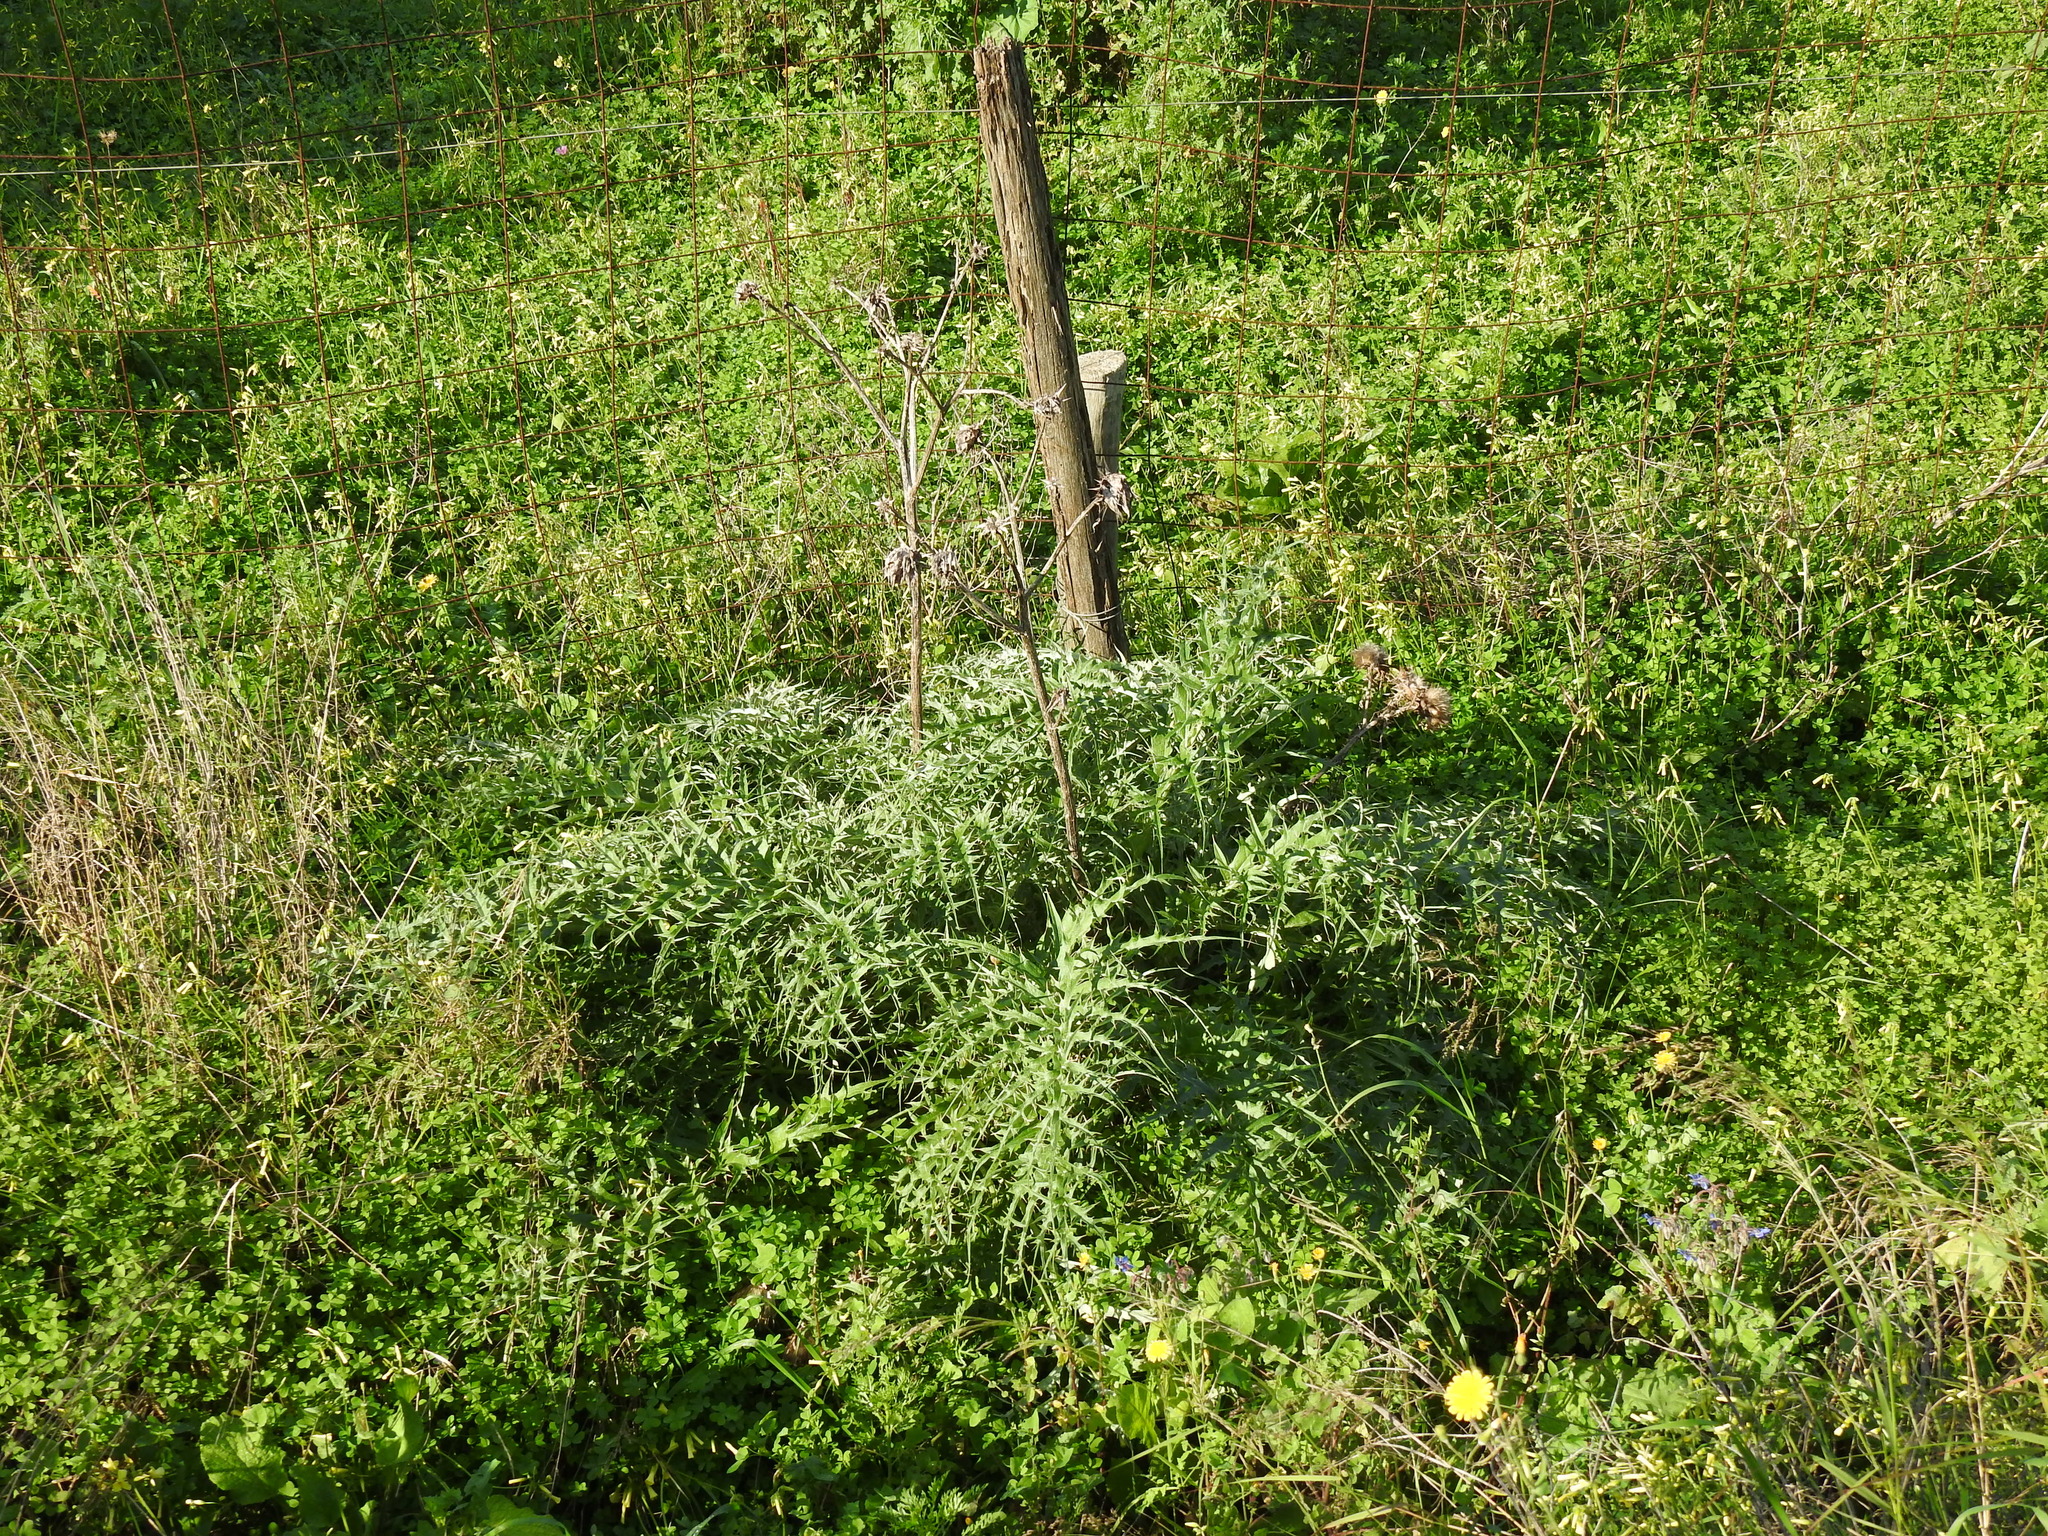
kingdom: Plantae
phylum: Tracheophyta
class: Magnoliopsida
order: Asterales
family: Asteraceae
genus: Cynara
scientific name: Cynara cardunculus
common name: Globe artichoke
